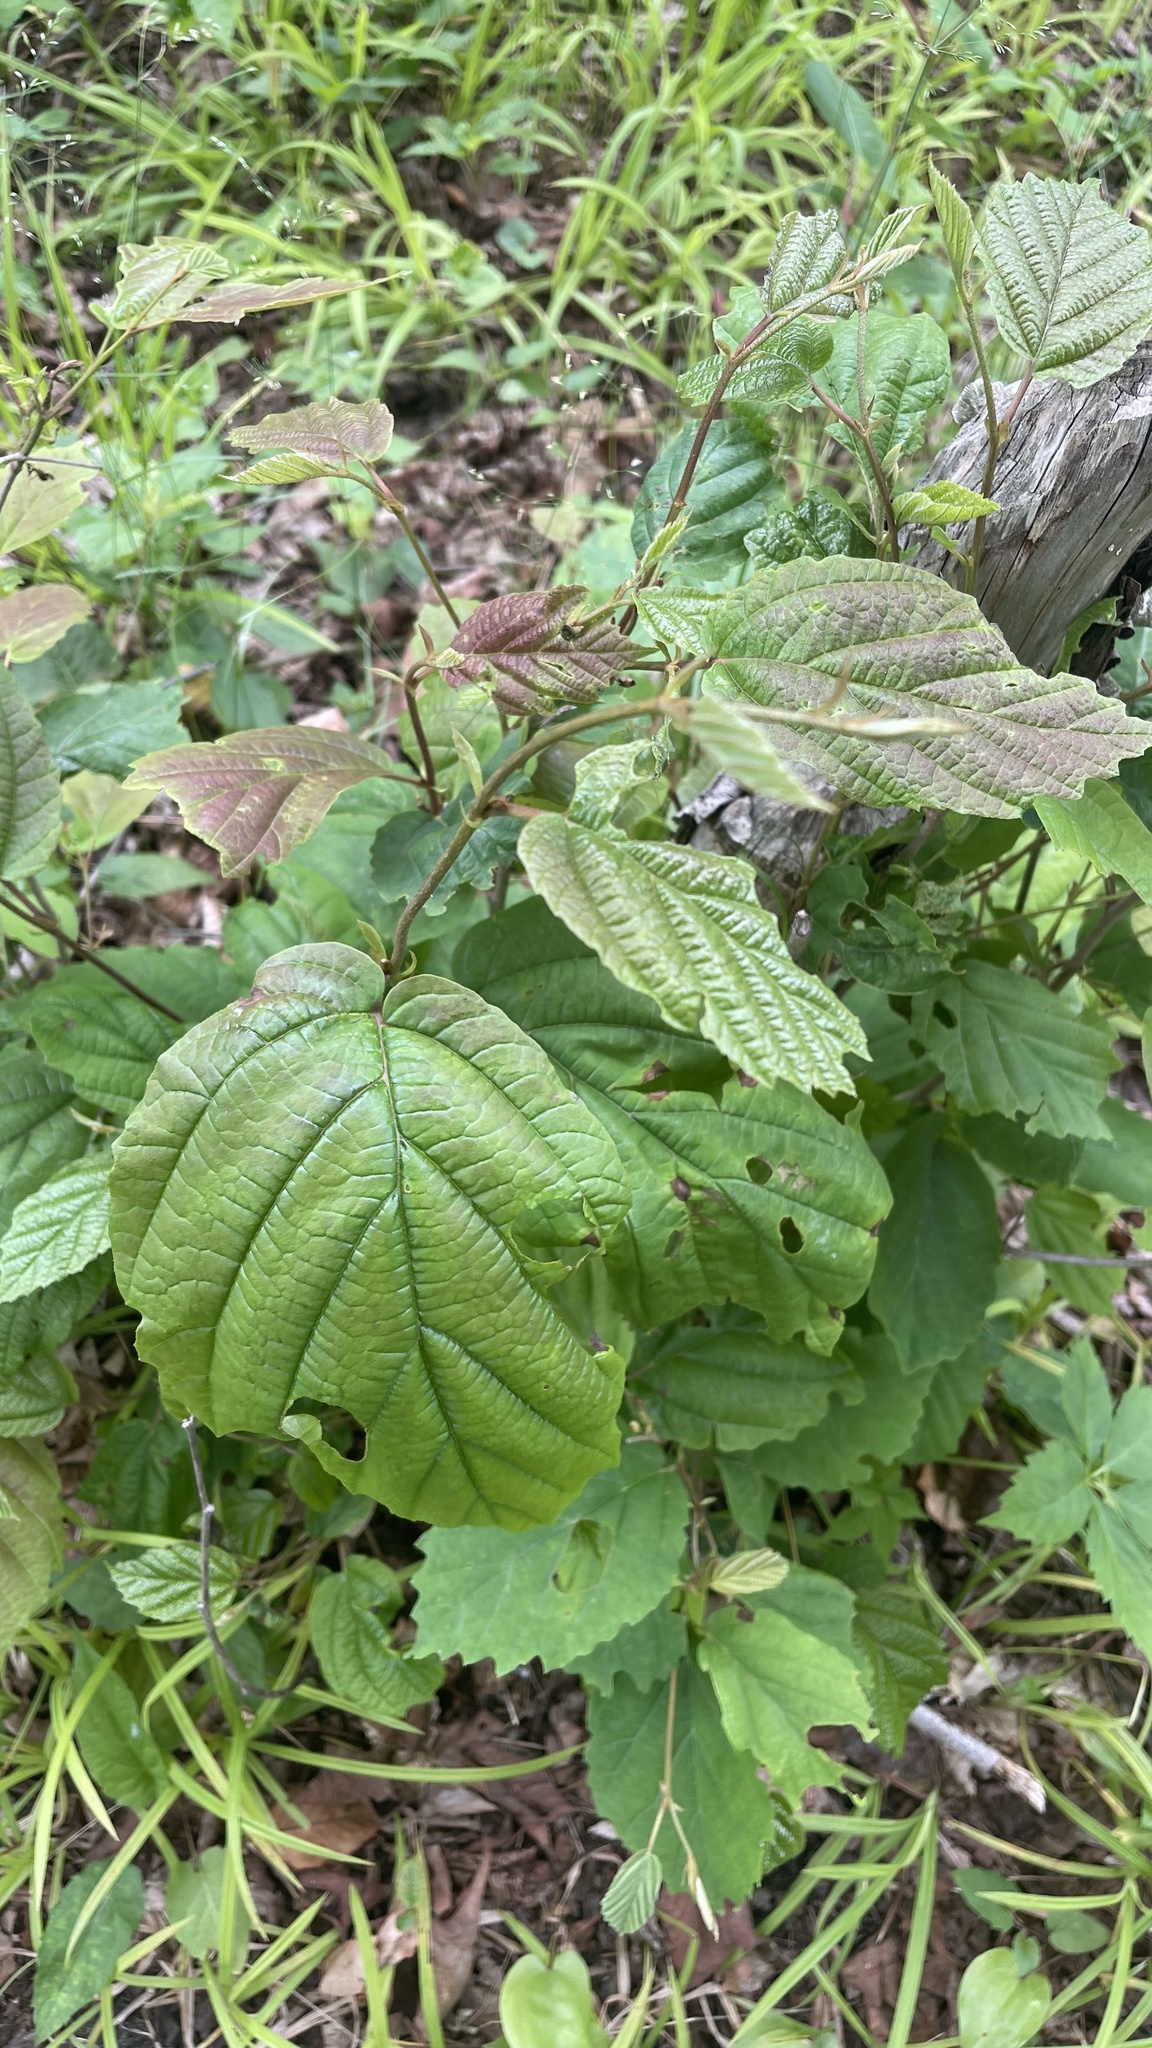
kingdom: Plantae
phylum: Tracheophyta
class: Magnoliopsida
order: Saxifragales
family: Hamamelidaceae
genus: Hamamelis
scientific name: Hamamelis virginiana
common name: Witch-hazel
